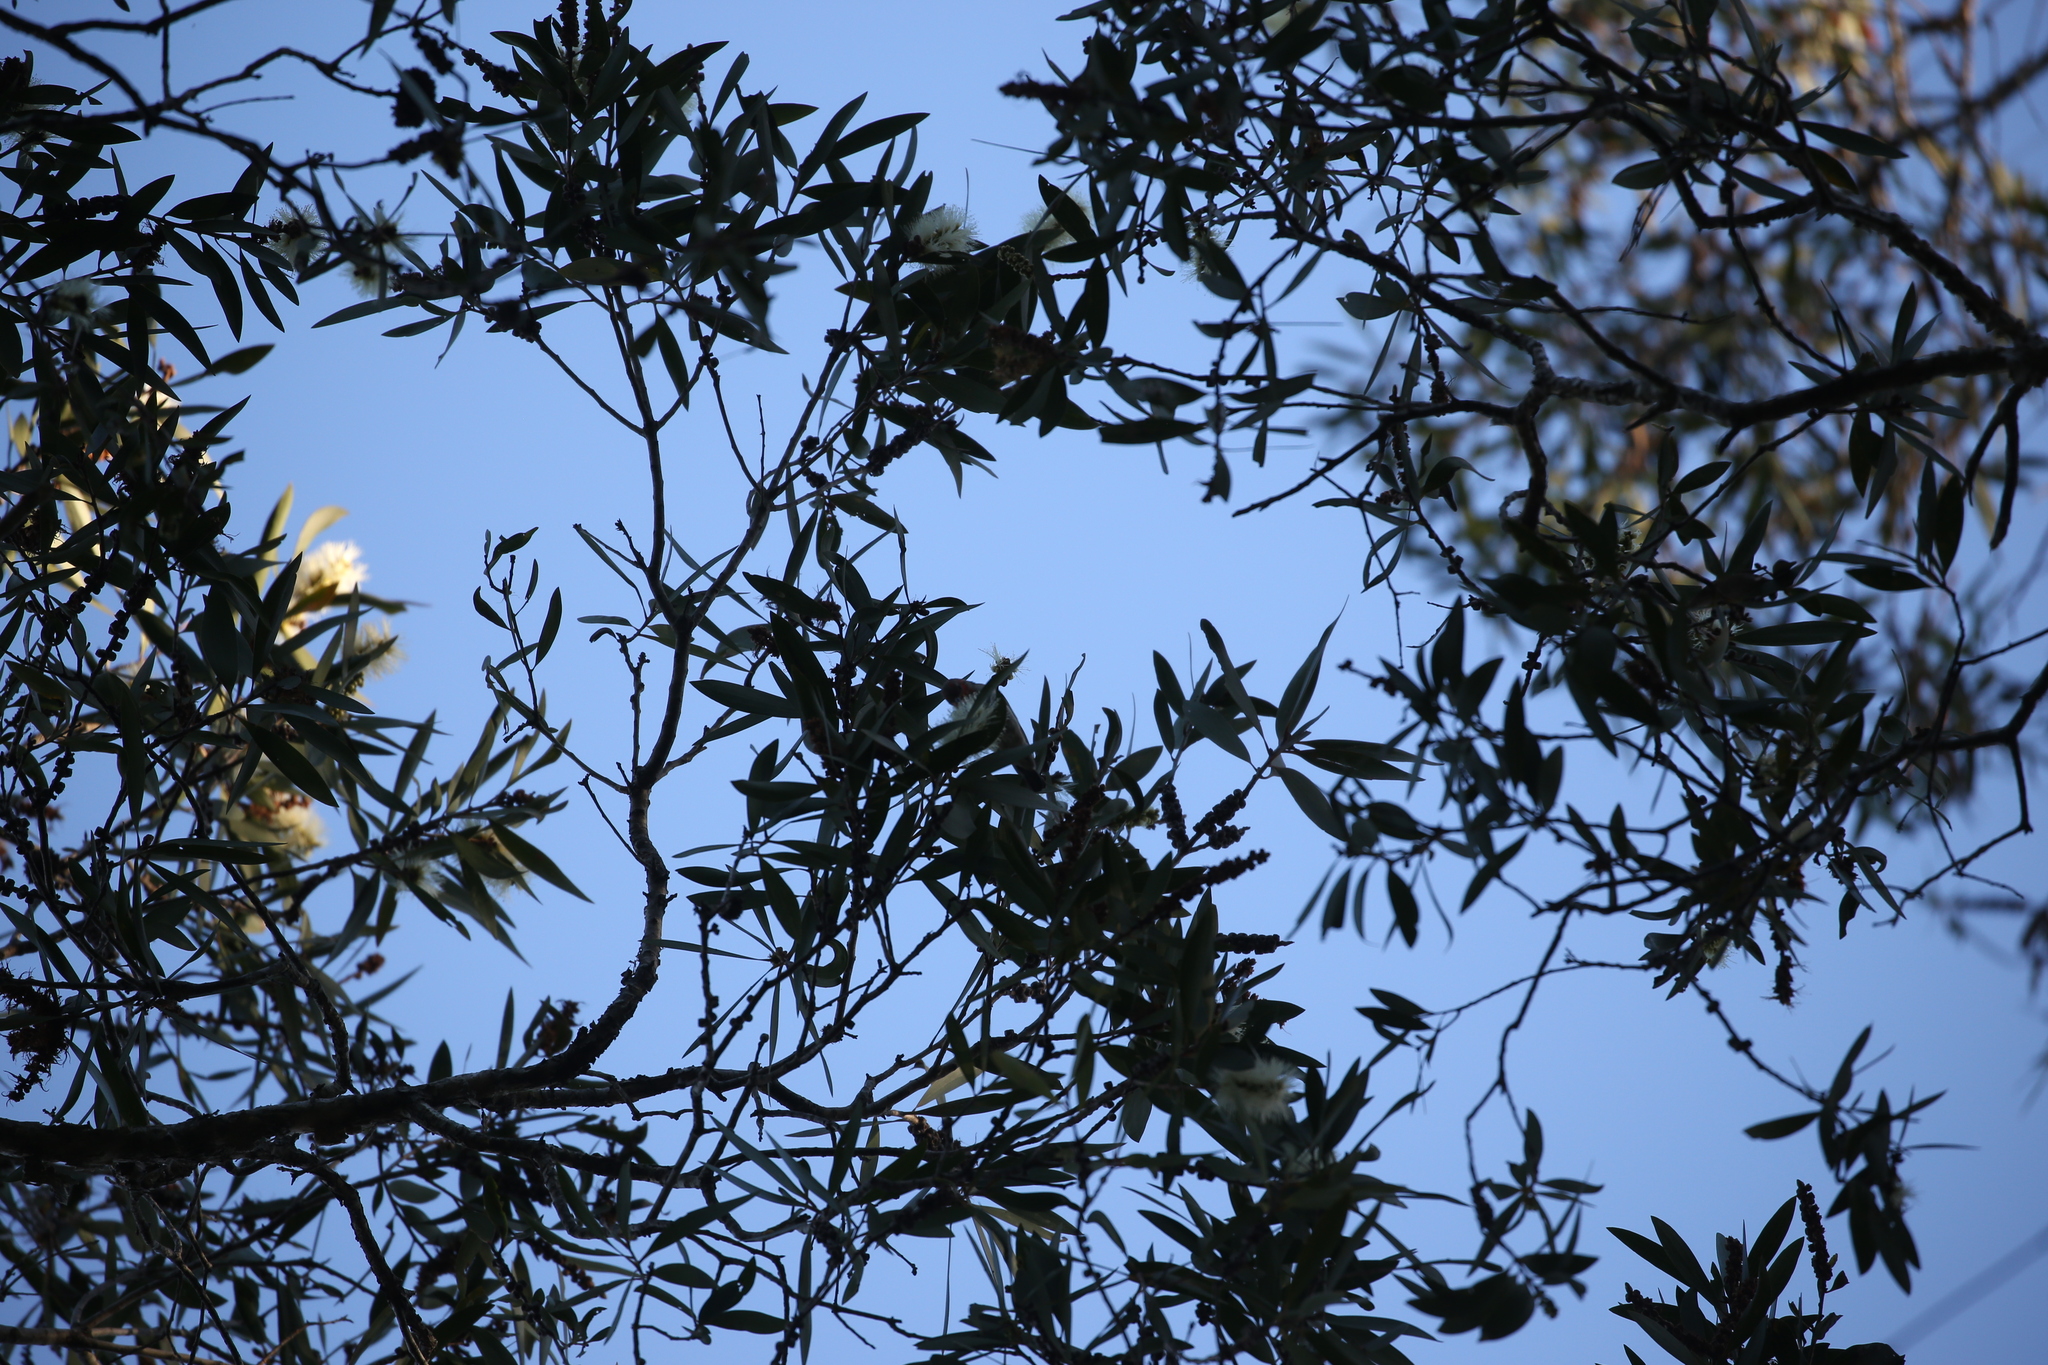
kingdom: Animalia
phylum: Chordata
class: Aves
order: Passeriformes
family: Meliphagidae
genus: Myzomela
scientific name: Myzomela sanguinolenta
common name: Scarlet myzomela
